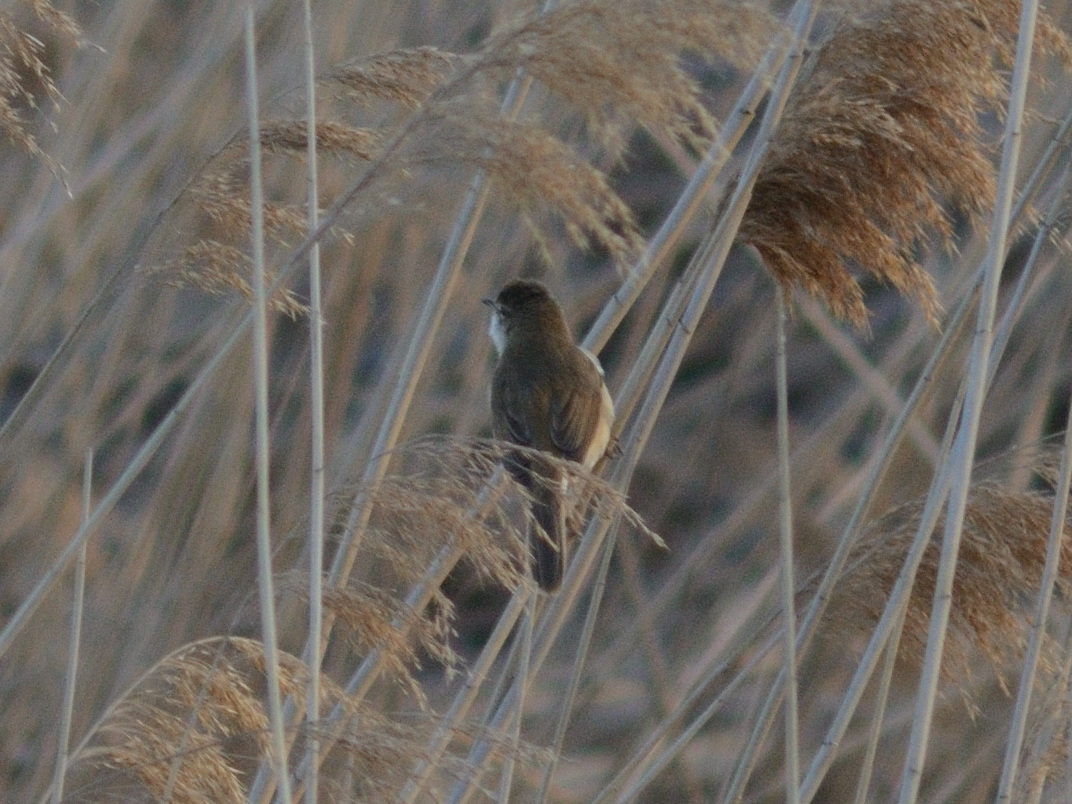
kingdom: Animalia
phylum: Chordata
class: Aves
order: Passeriformes
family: Acrocephalidae
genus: Acrocephalus
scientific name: Acrocephalus agricola
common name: Paddyfield warbler
